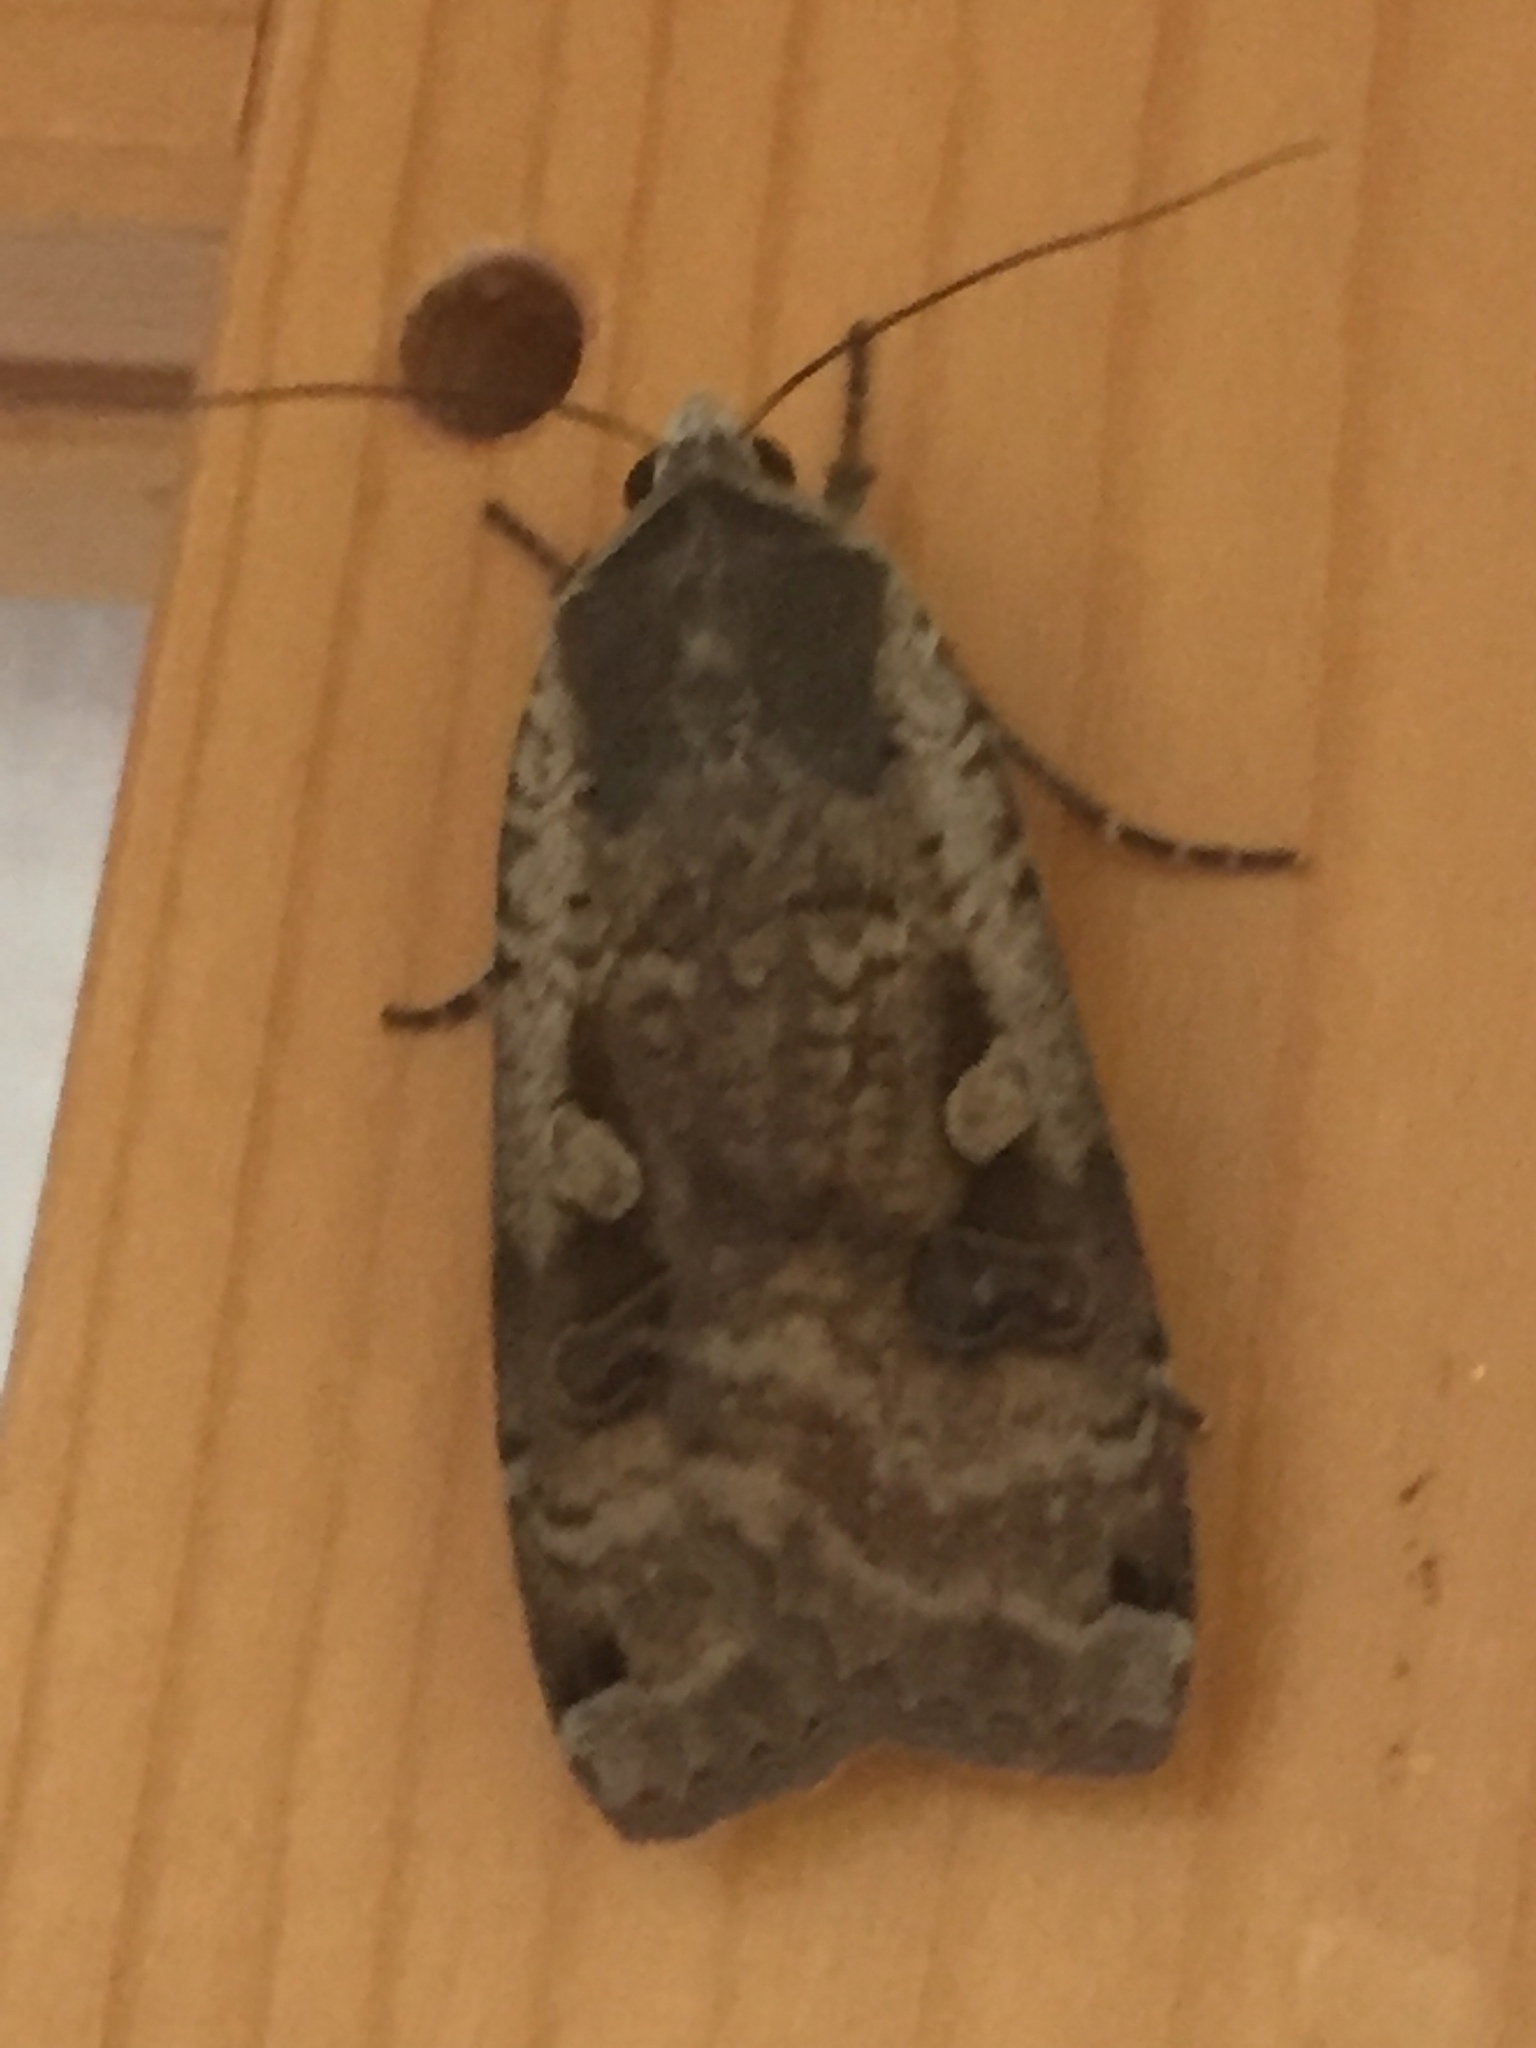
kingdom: Animalia
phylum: Arthropoda
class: Insecta
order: Lepidoptera
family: Noctuidae
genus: Noctua
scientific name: Noctua pronuba
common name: Large yellow underwing
